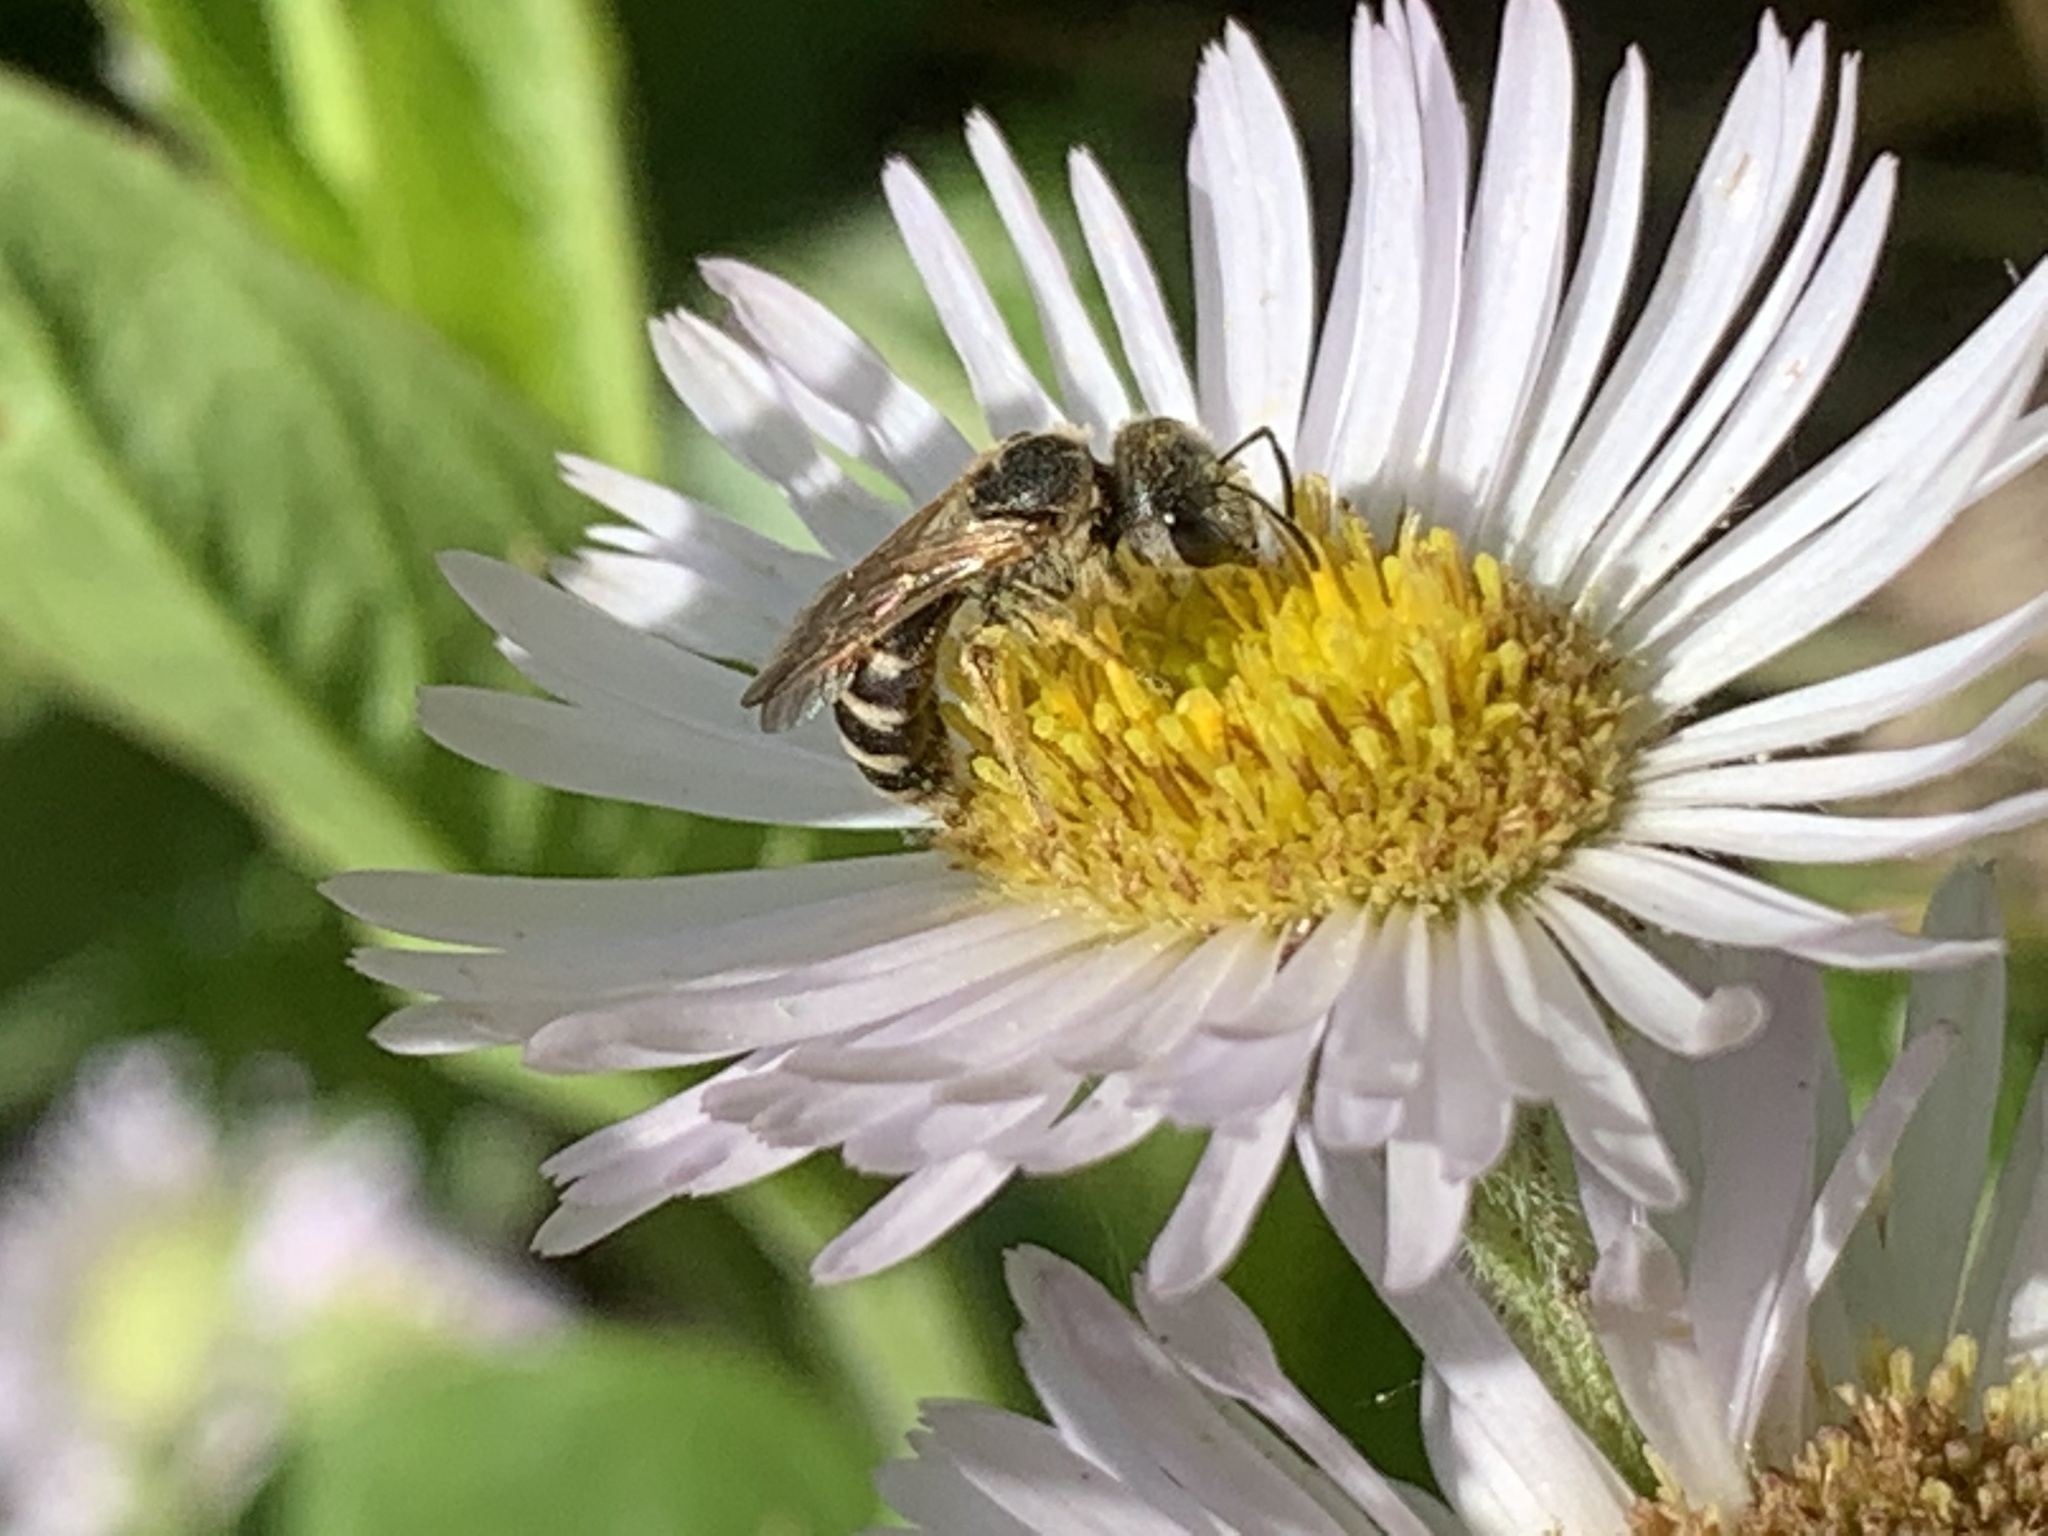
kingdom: Animalia
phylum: Arthropoda
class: Insecta
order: Hymenoptera
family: Halictidae
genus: Halictus
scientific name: Halictus ligatus
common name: Ligated furrow bee
